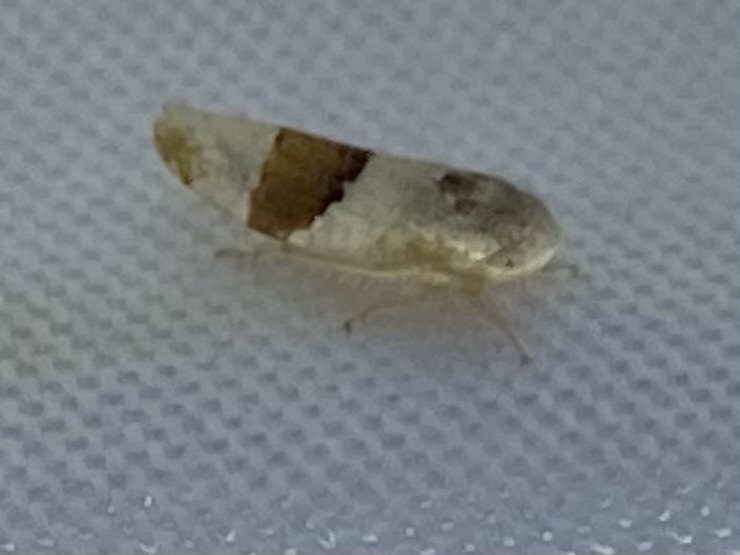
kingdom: Animalia
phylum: Arthropoda
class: Insecta
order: Hemiptera
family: Cicadellidae
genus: Norvellina
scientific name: Norvellina seminuda
